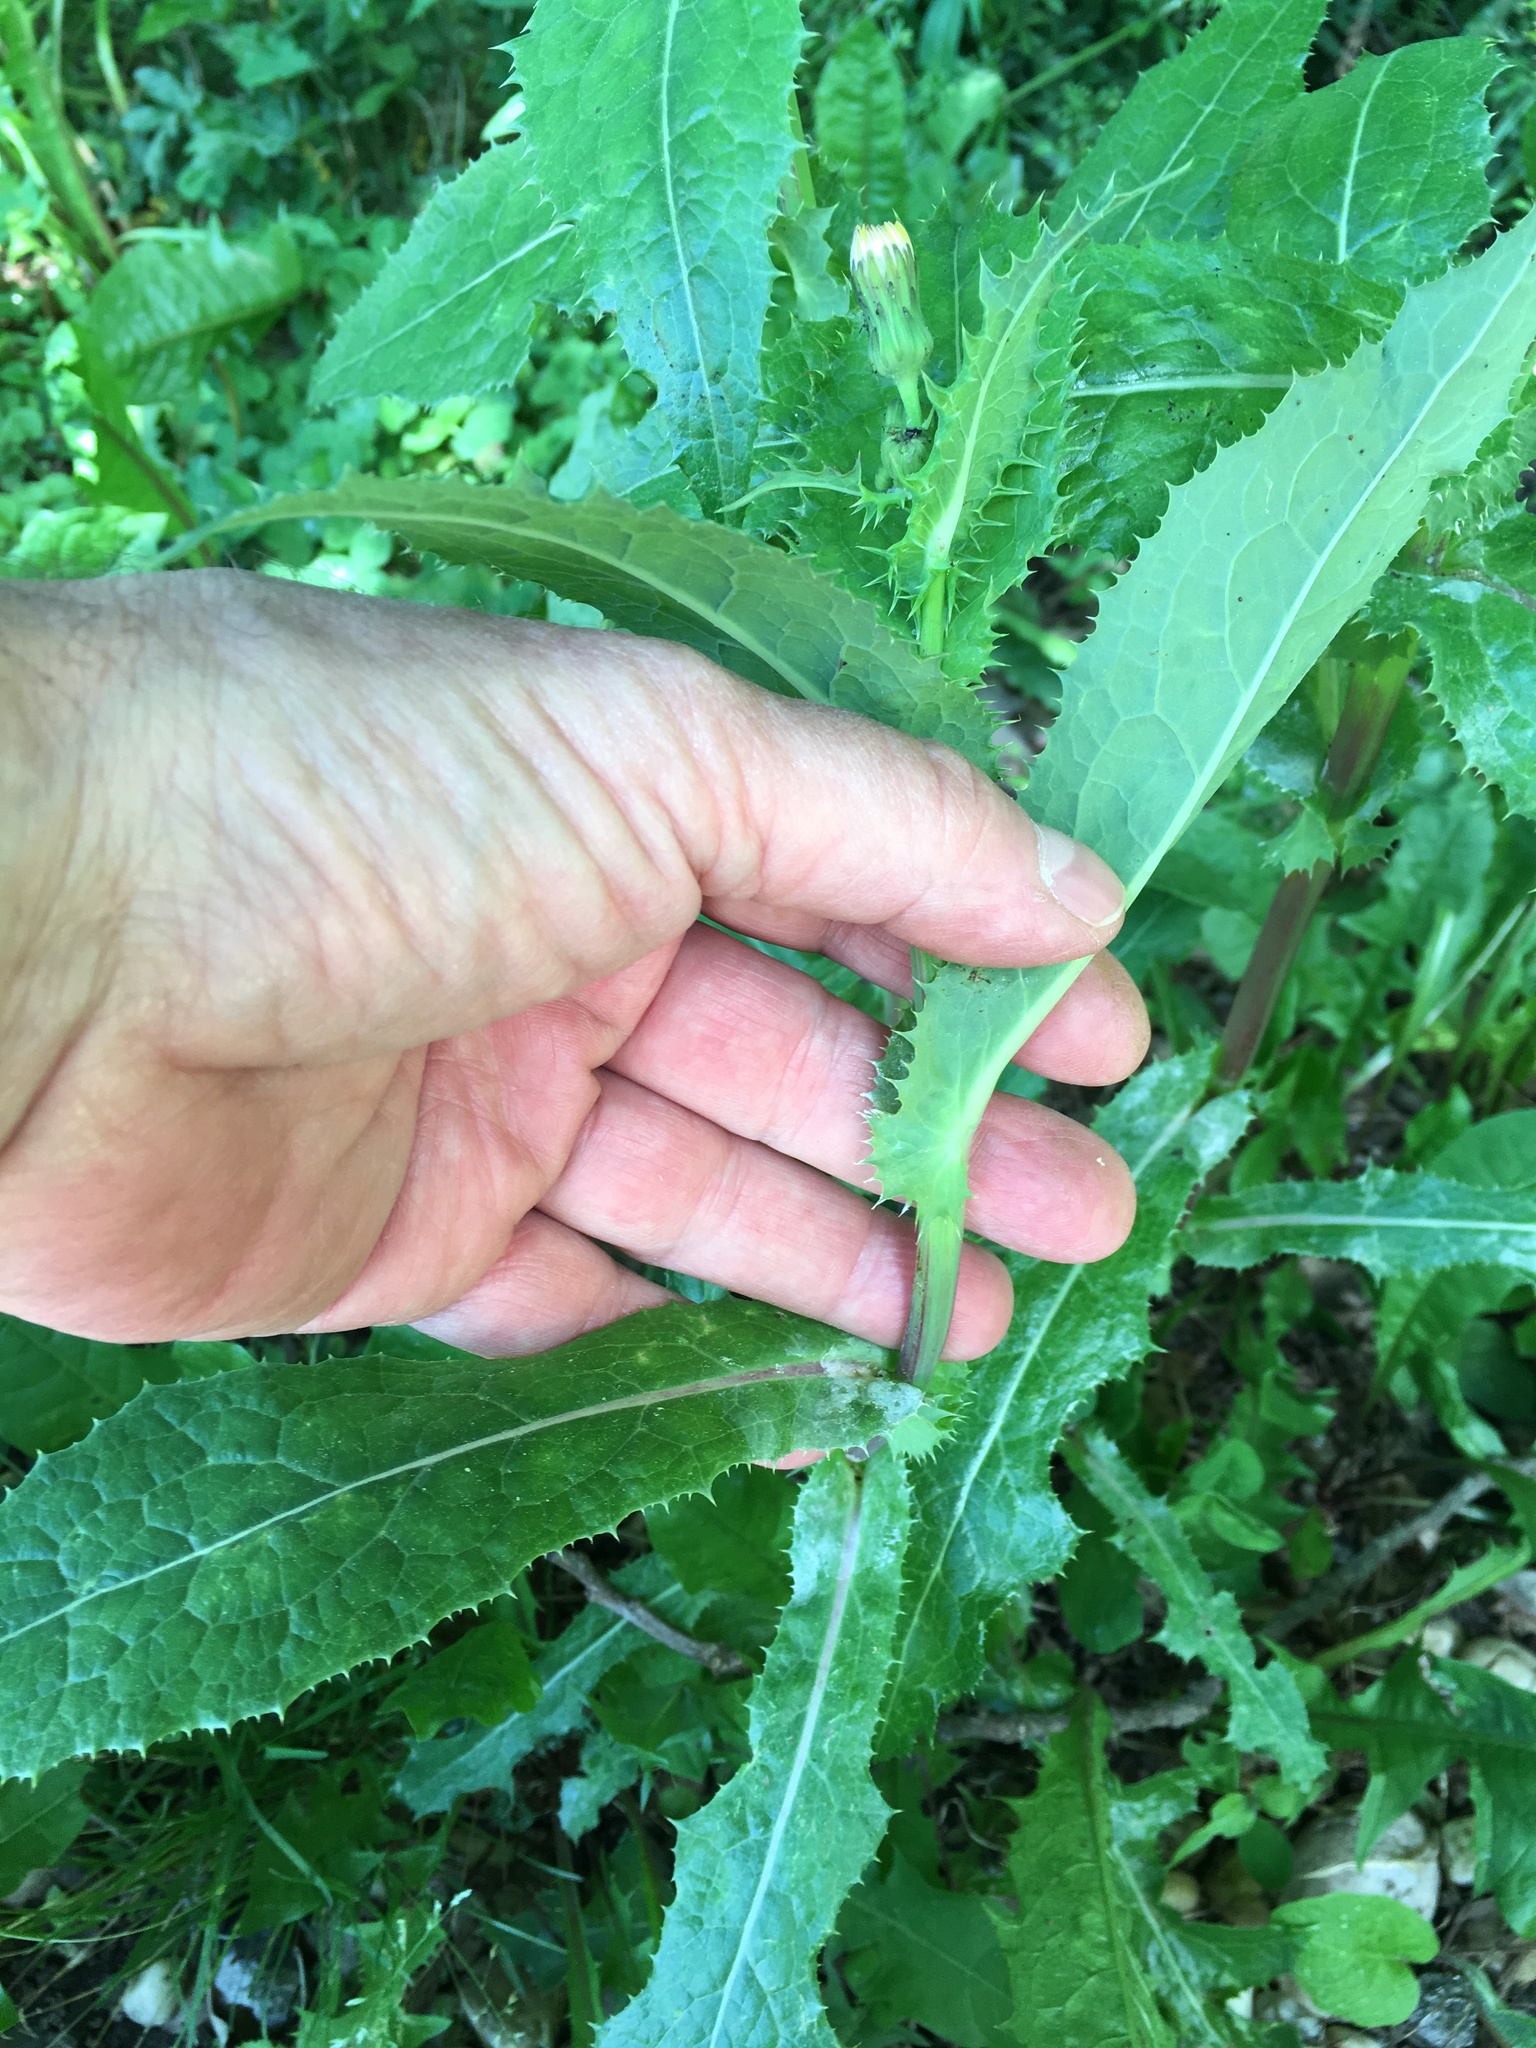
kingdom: Plantae
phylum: Tracheophyta
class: Magnoliopsida
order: Asterales
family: Asteraceae
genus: Sonchus
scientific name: Sonchus asper
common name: Prickly sow-thistle
